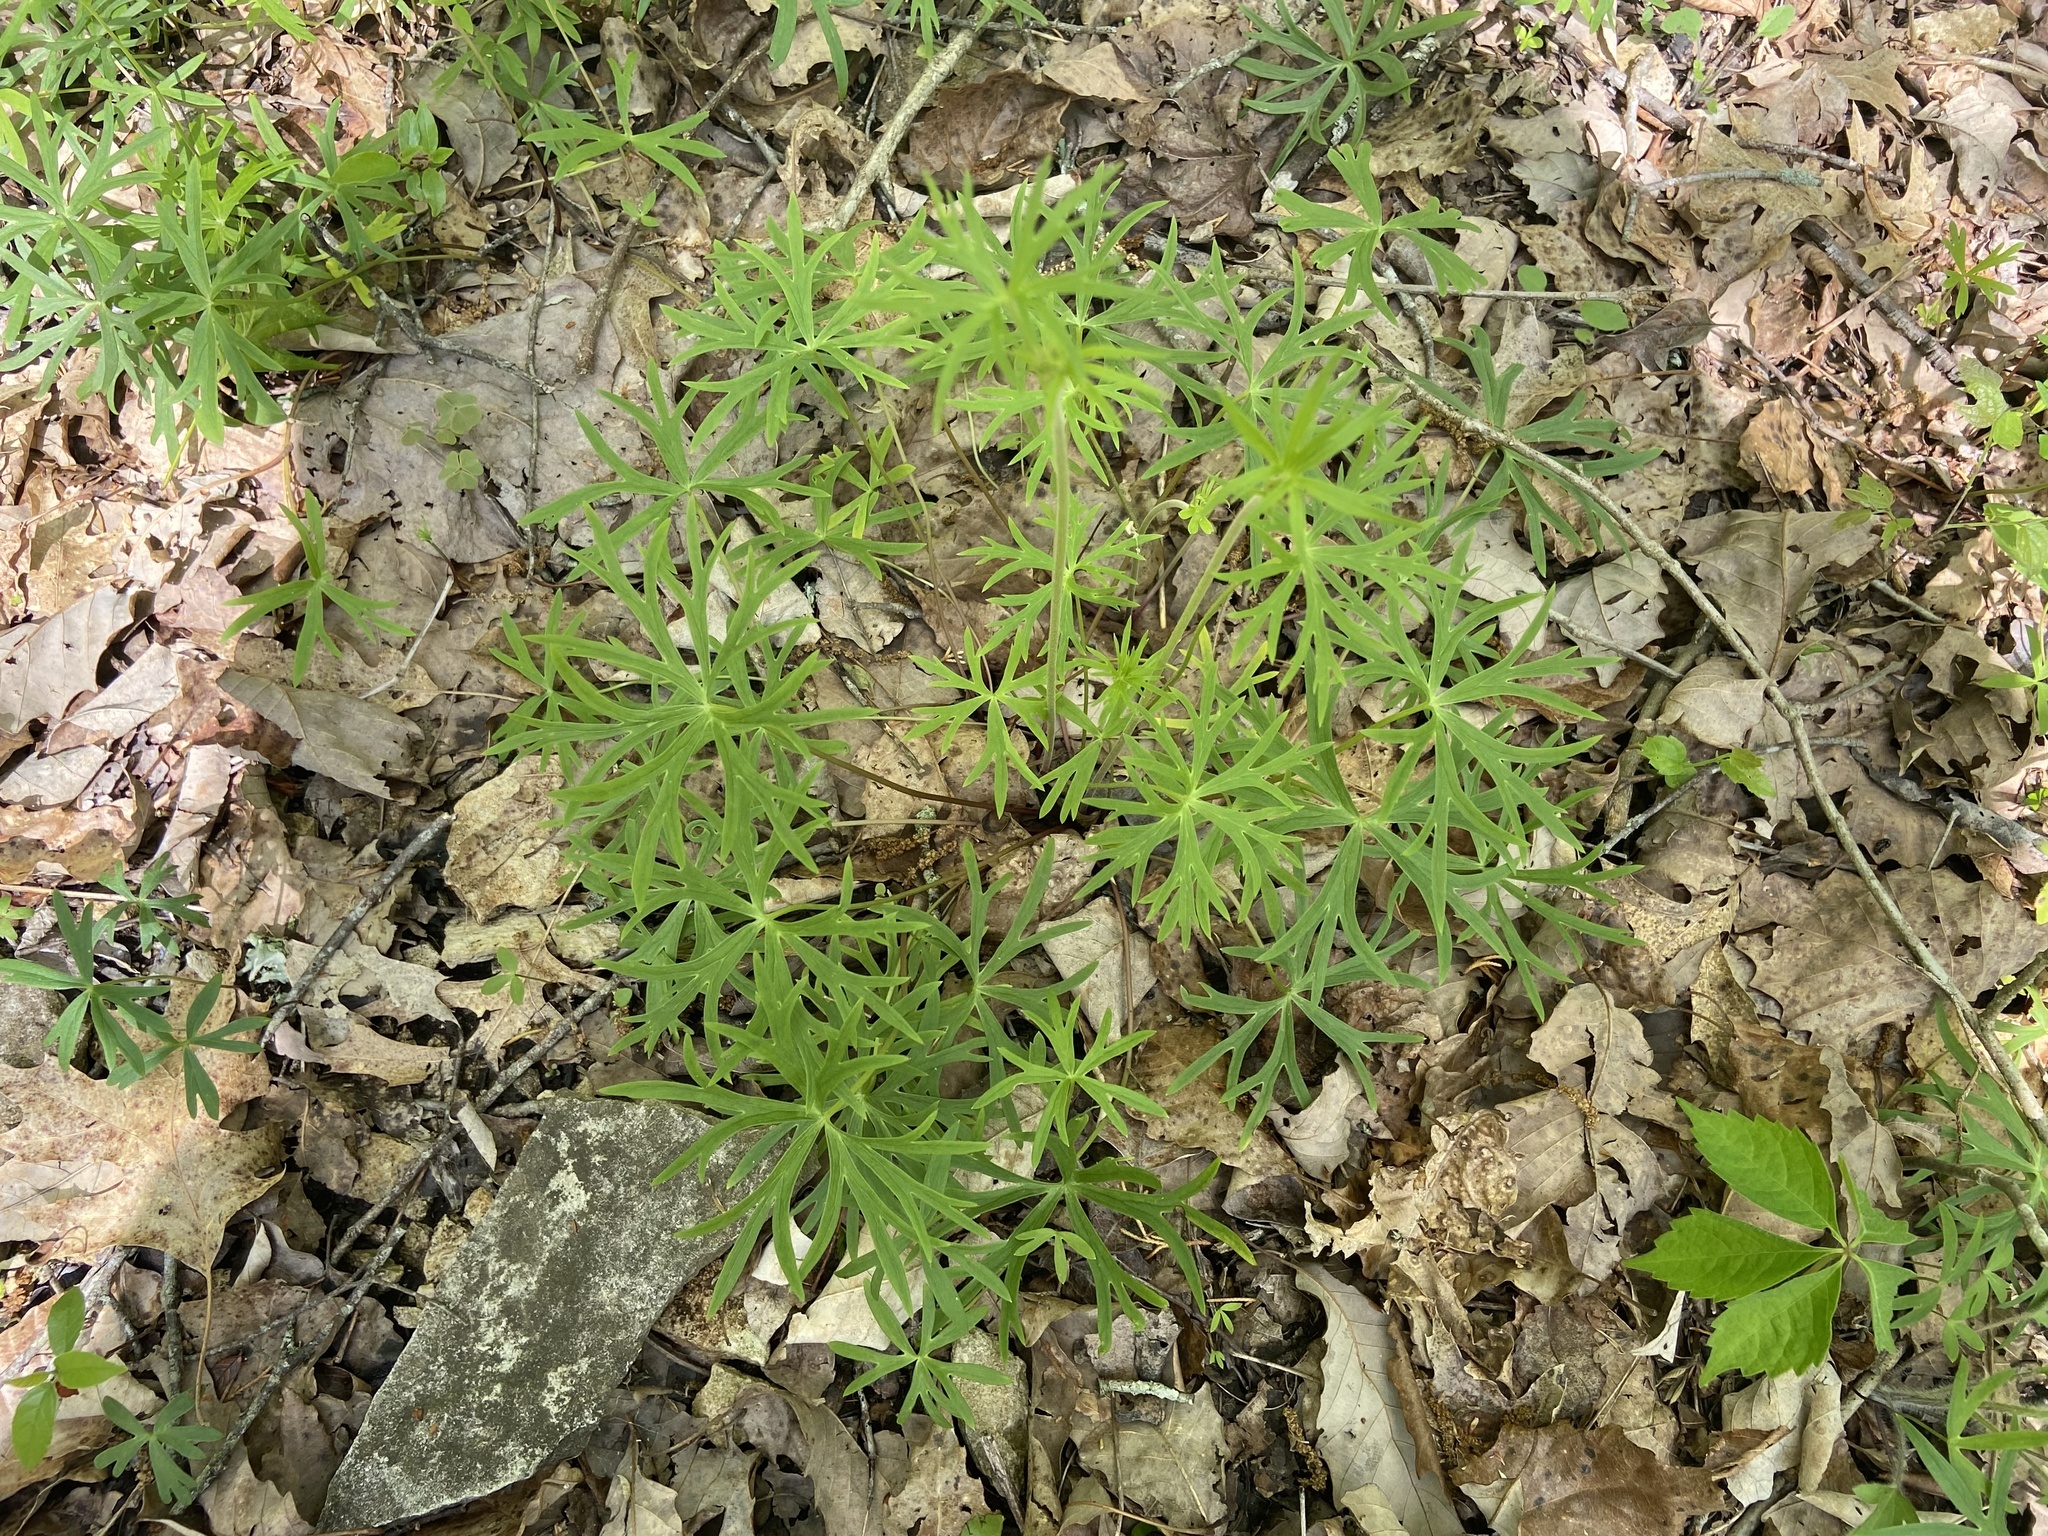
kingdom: Plantae
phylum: Tracheophyta
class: Magnoliopsida
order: Ranunculales
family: Ranunculaceae
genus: Delphinium
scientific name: Delphinium alabamicum
